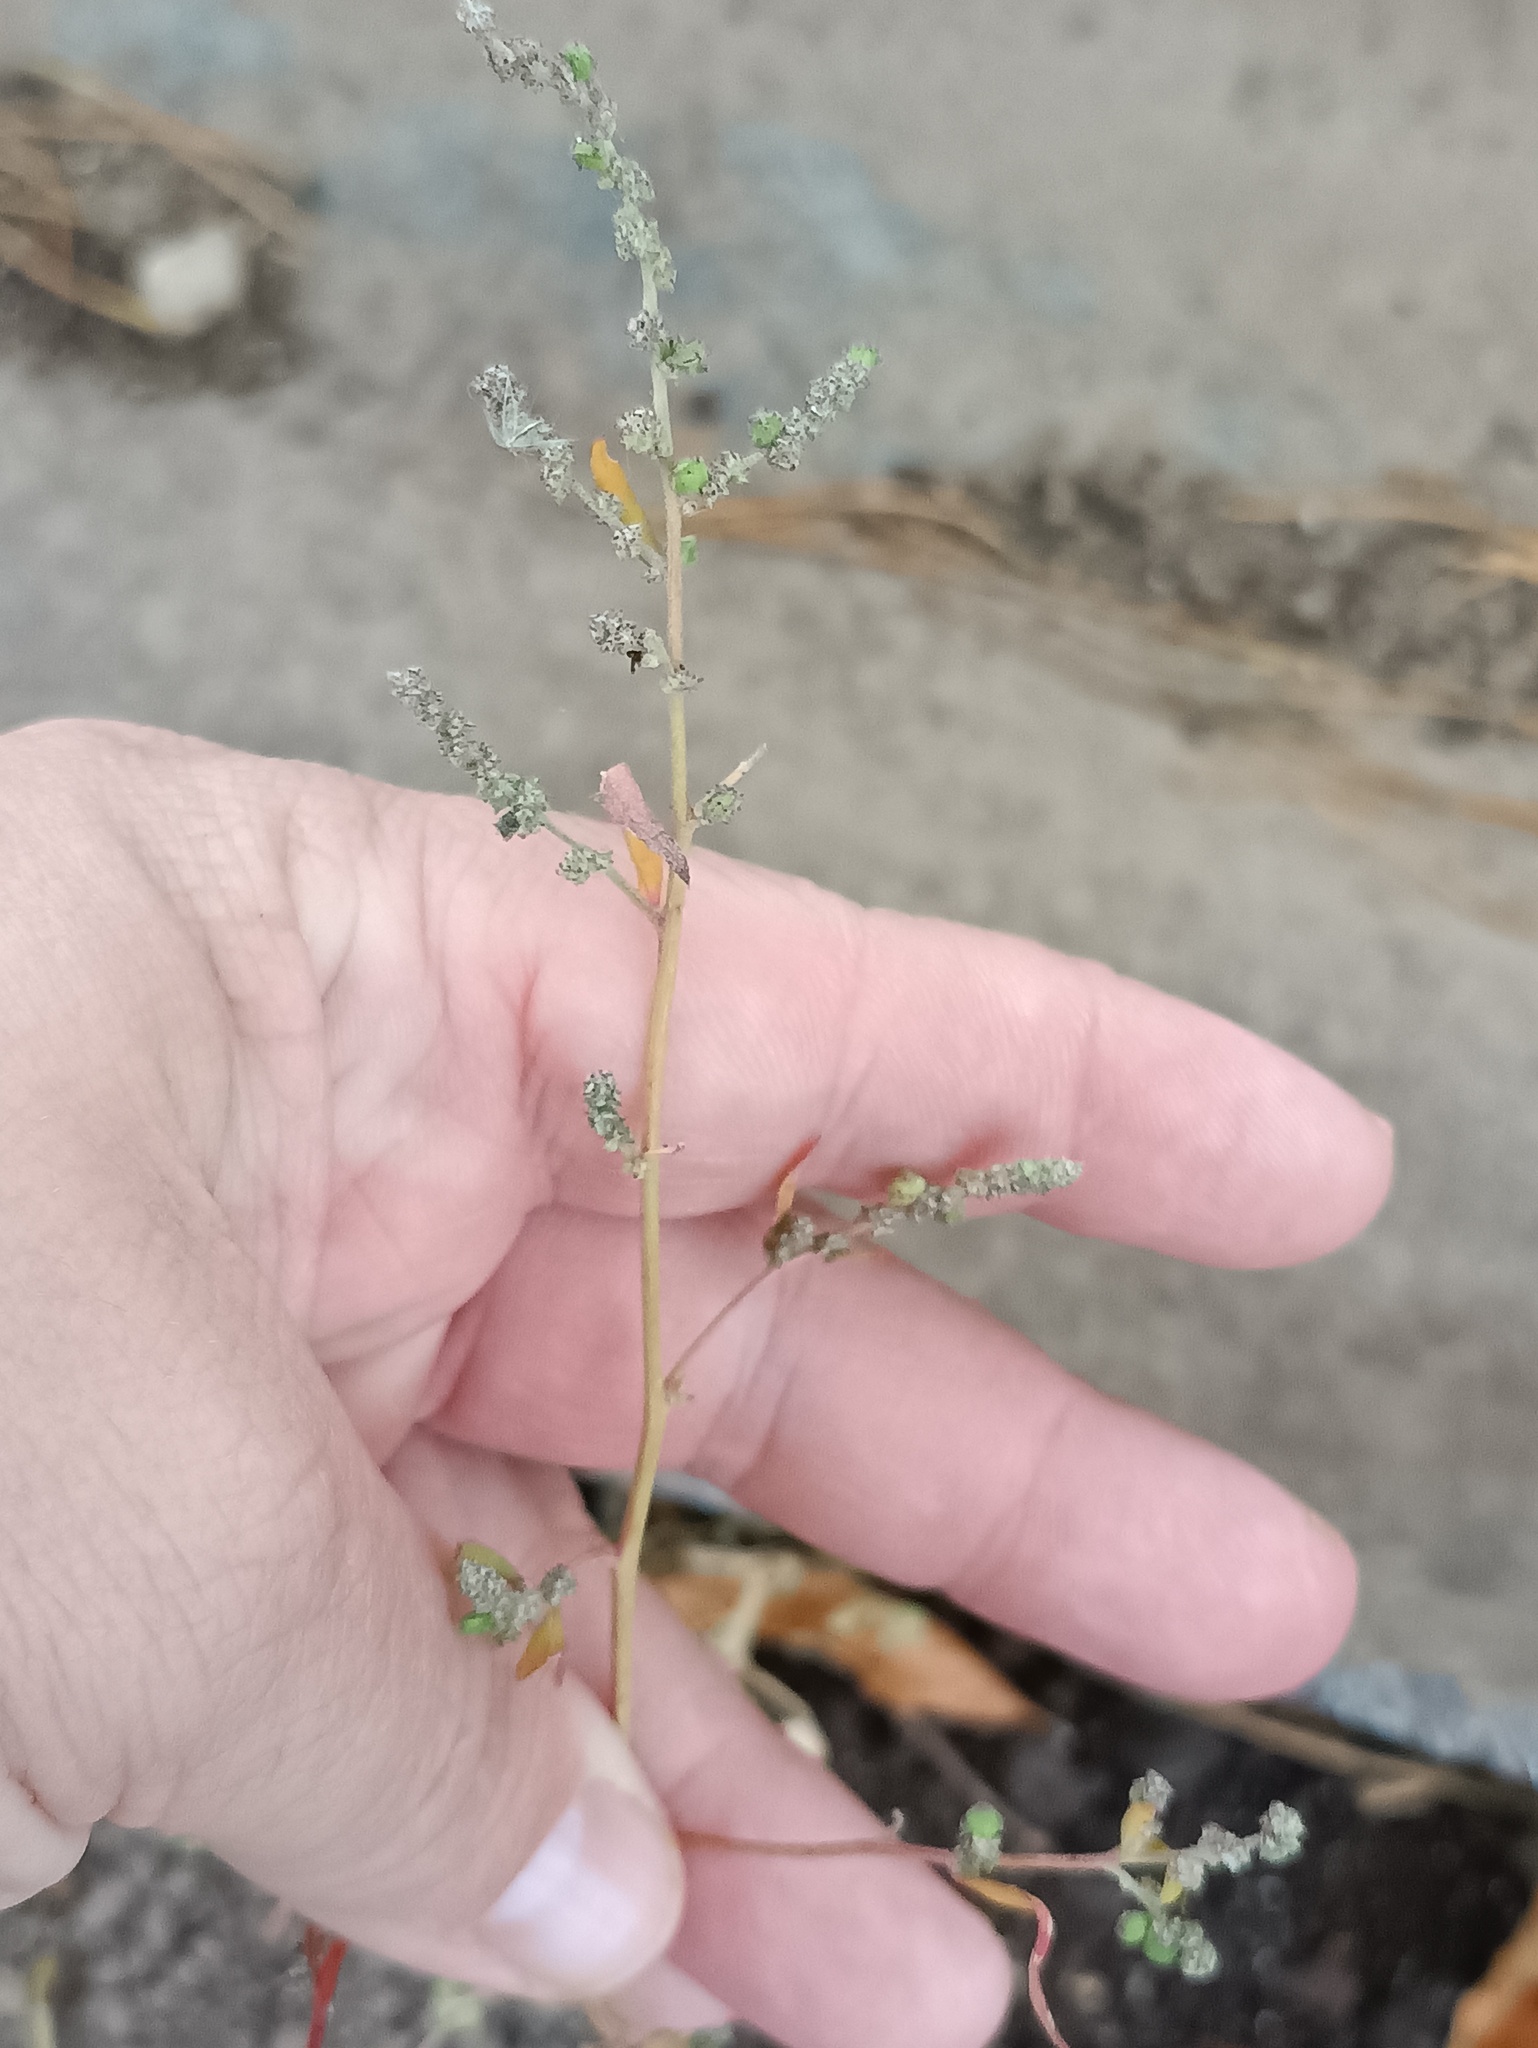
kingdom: Plantae
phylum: Tracheophyta
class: Magnoliopsida
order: Caryophyllales
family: Amaranthaceae
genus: Atriplex
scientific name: Atriplex patula
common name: Common orache
